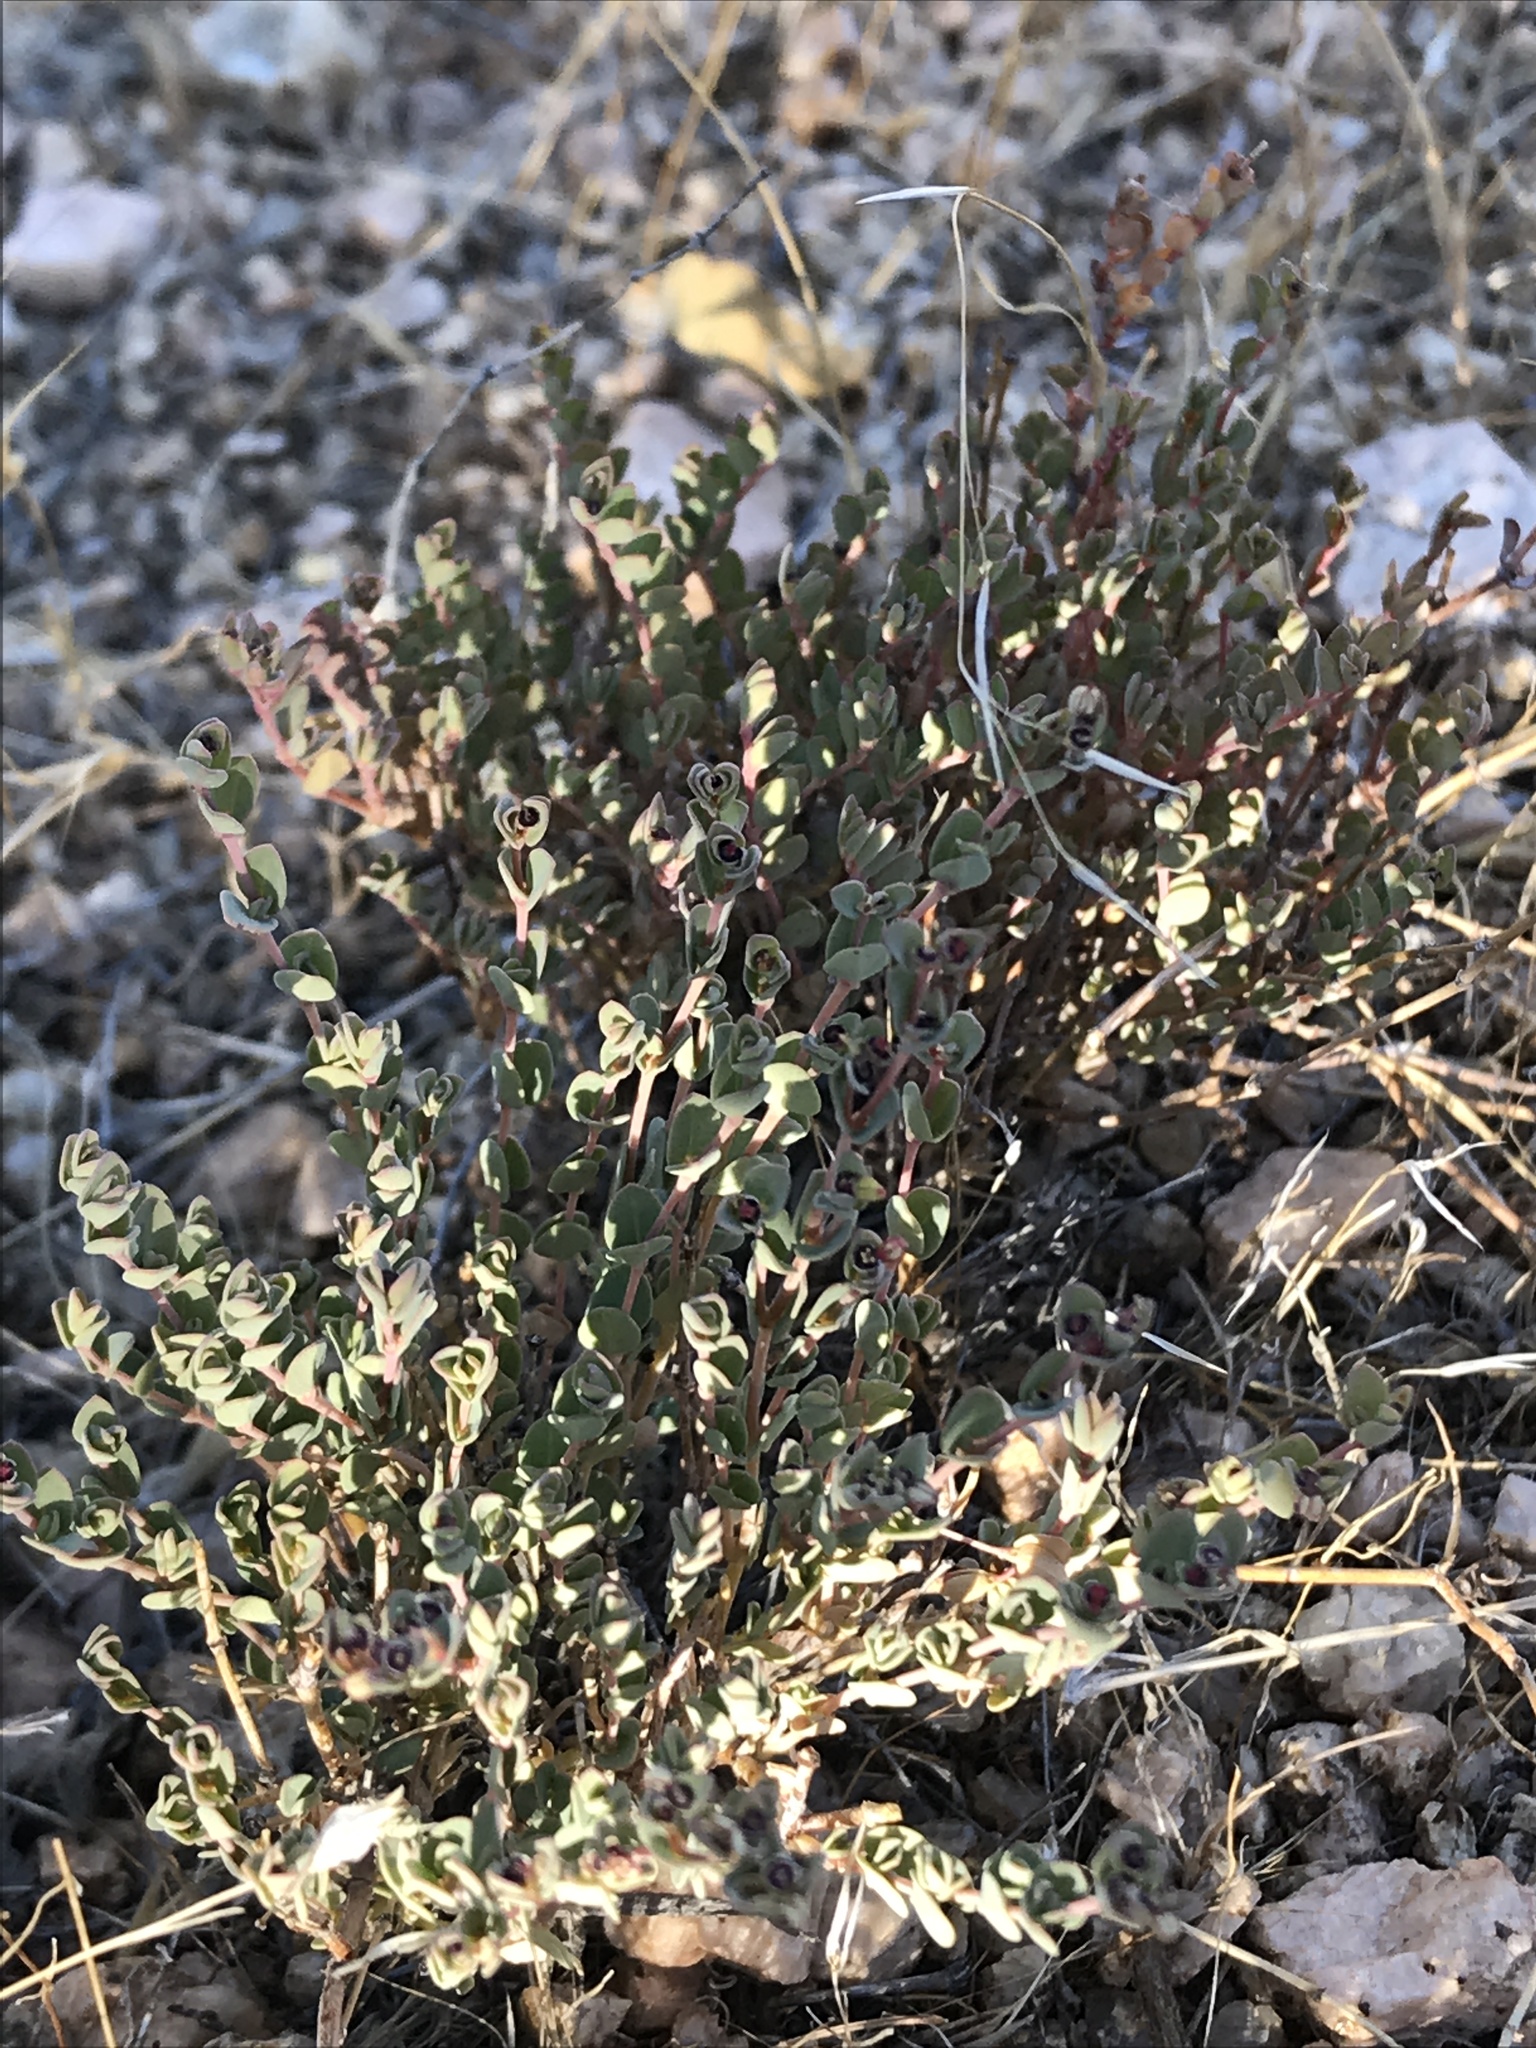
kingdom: Plantae
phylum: Tracheophyta
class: Magnoliopsida
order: Malpighiales
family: Euphorbiaceae
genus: Euphorbia
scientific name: Euphorbia polycarpa
